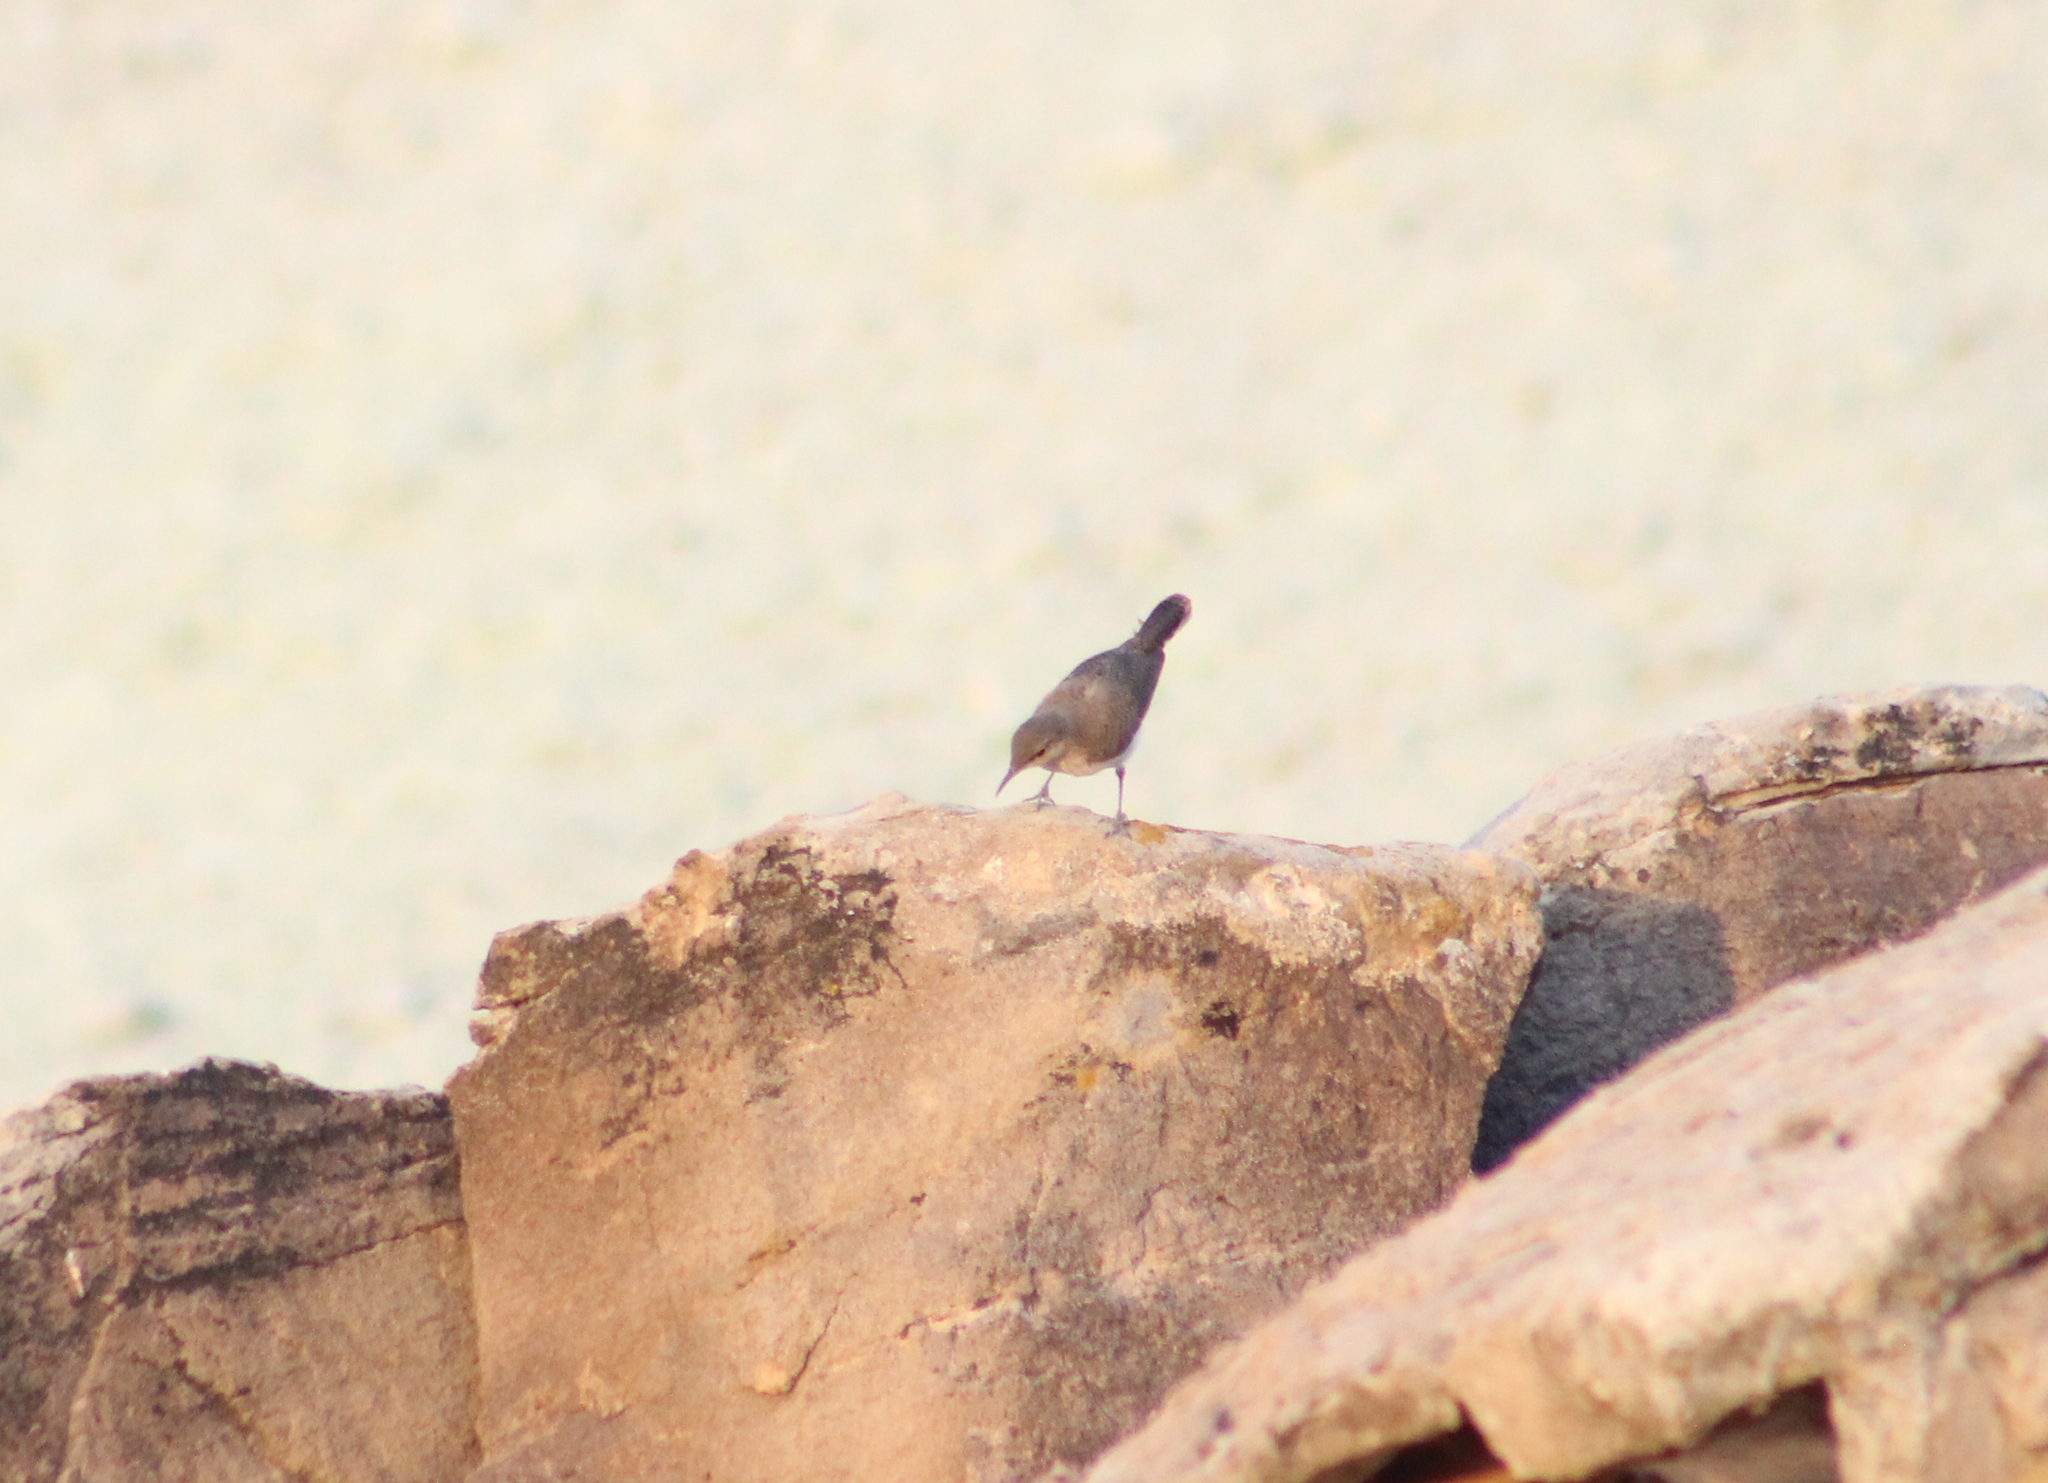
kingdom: Animalia
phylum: Chordata
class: Aves
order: Passeriformes
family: Troglodytidae
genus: Salpinctes
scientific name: Salpinctes obsoletus
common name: Rock wren
